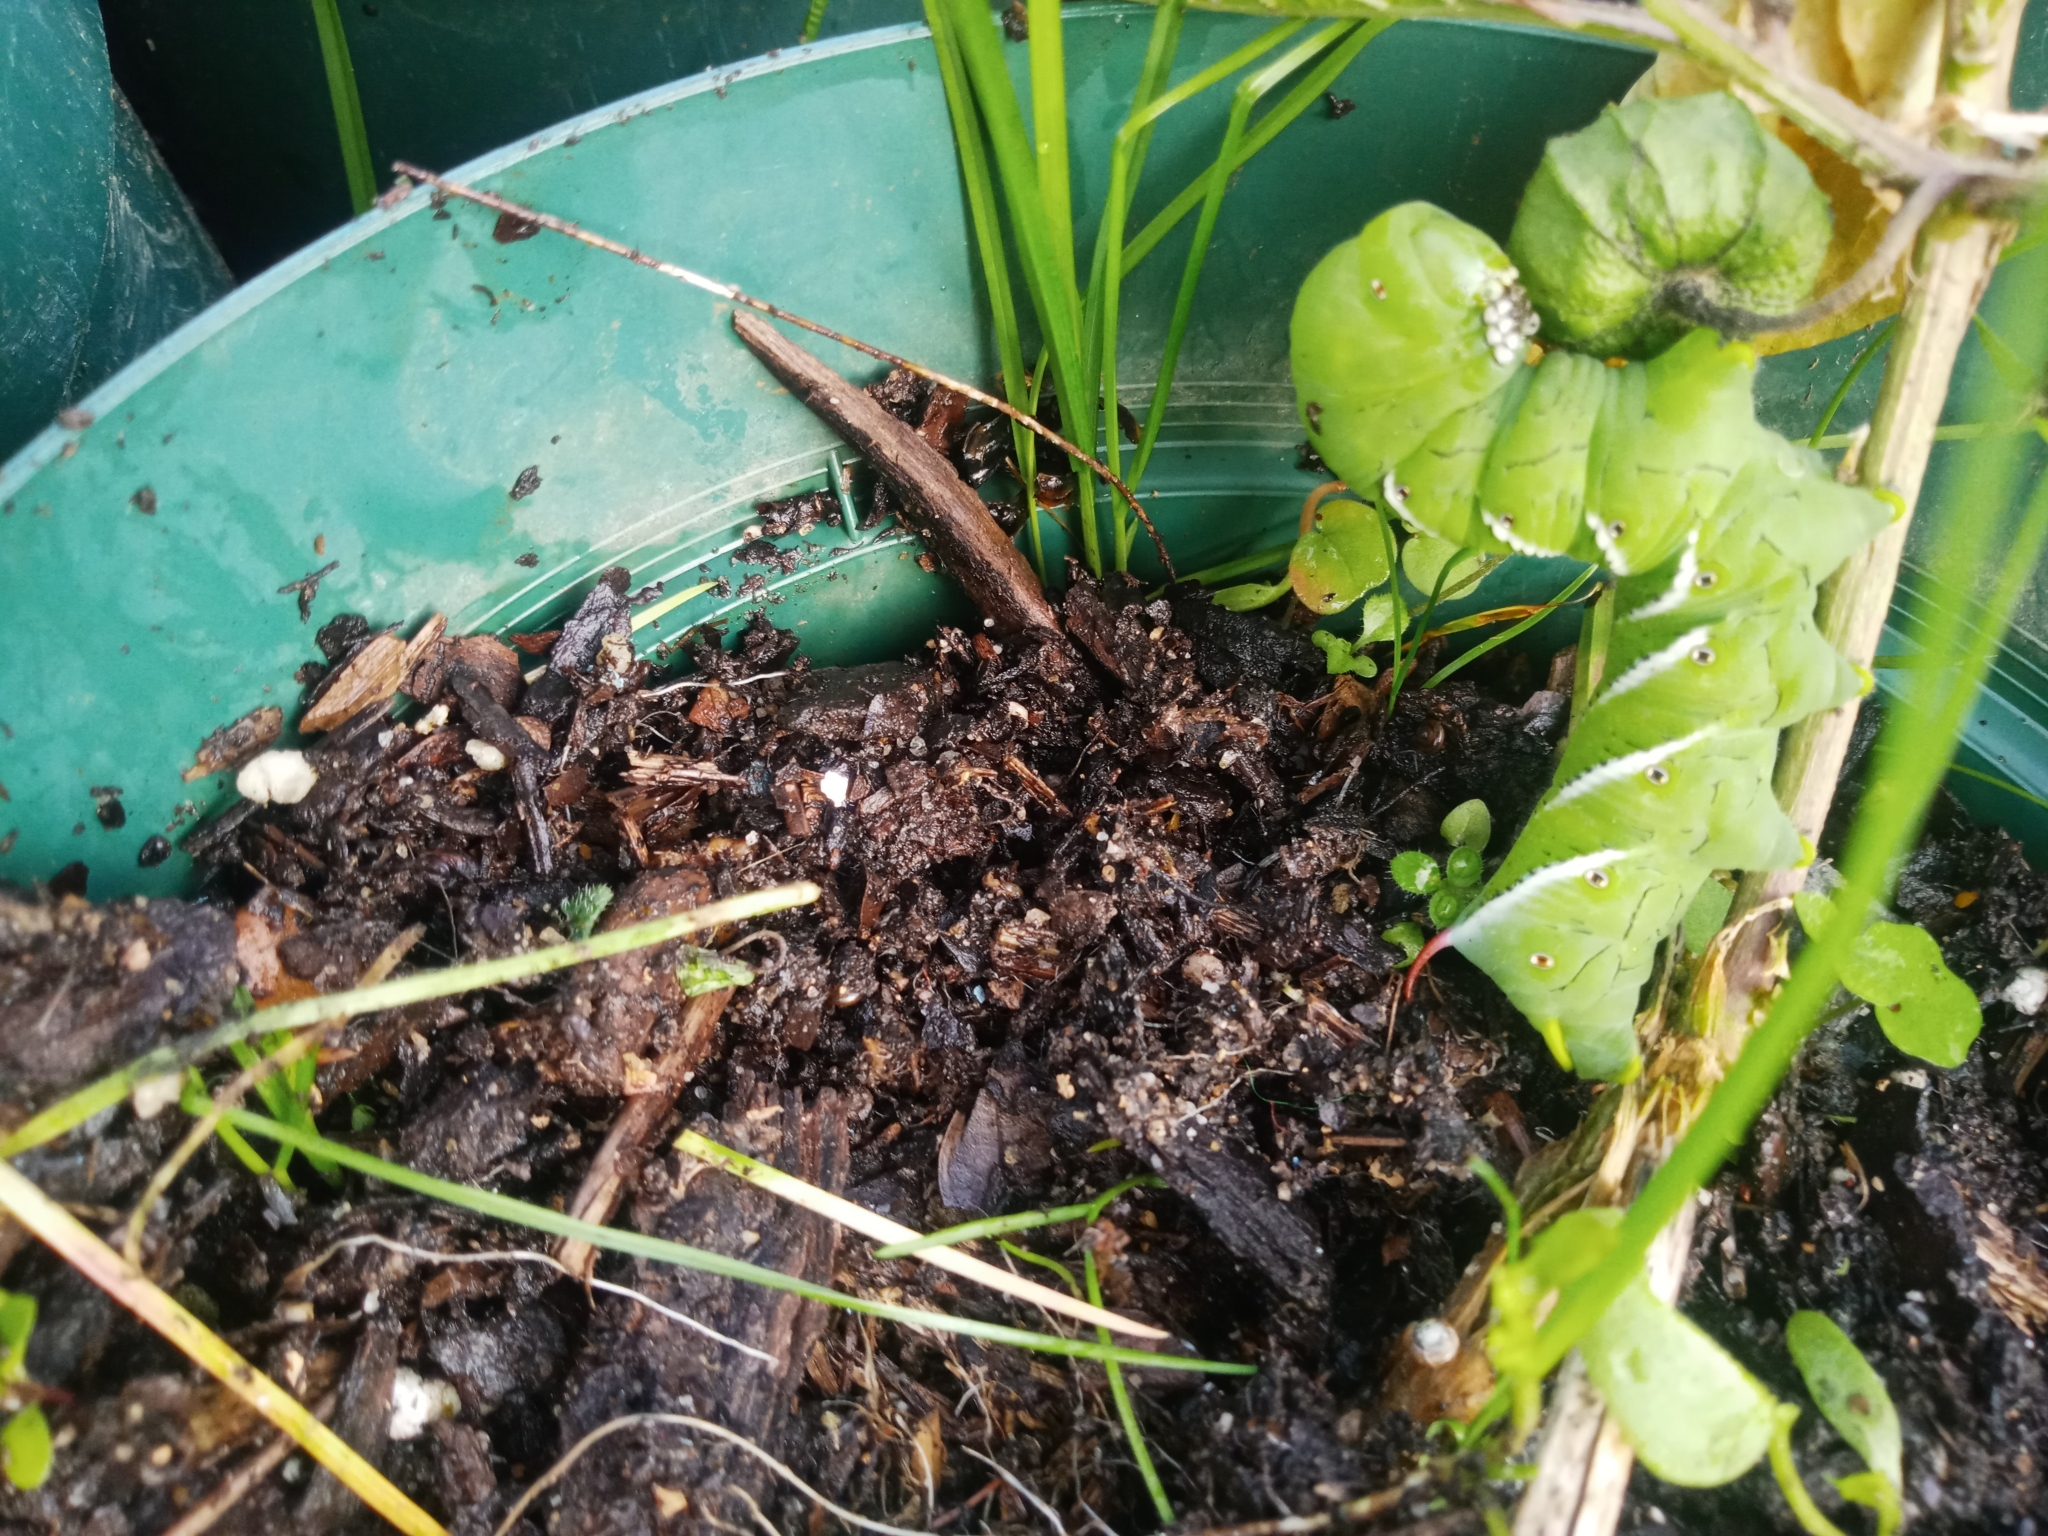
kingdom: Animalia
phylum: Arthropoda
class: Insecta
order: Lepidoptera
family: Sphingidae
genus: Manduca
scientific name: Manduca sexta
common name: Carolina sphinx
